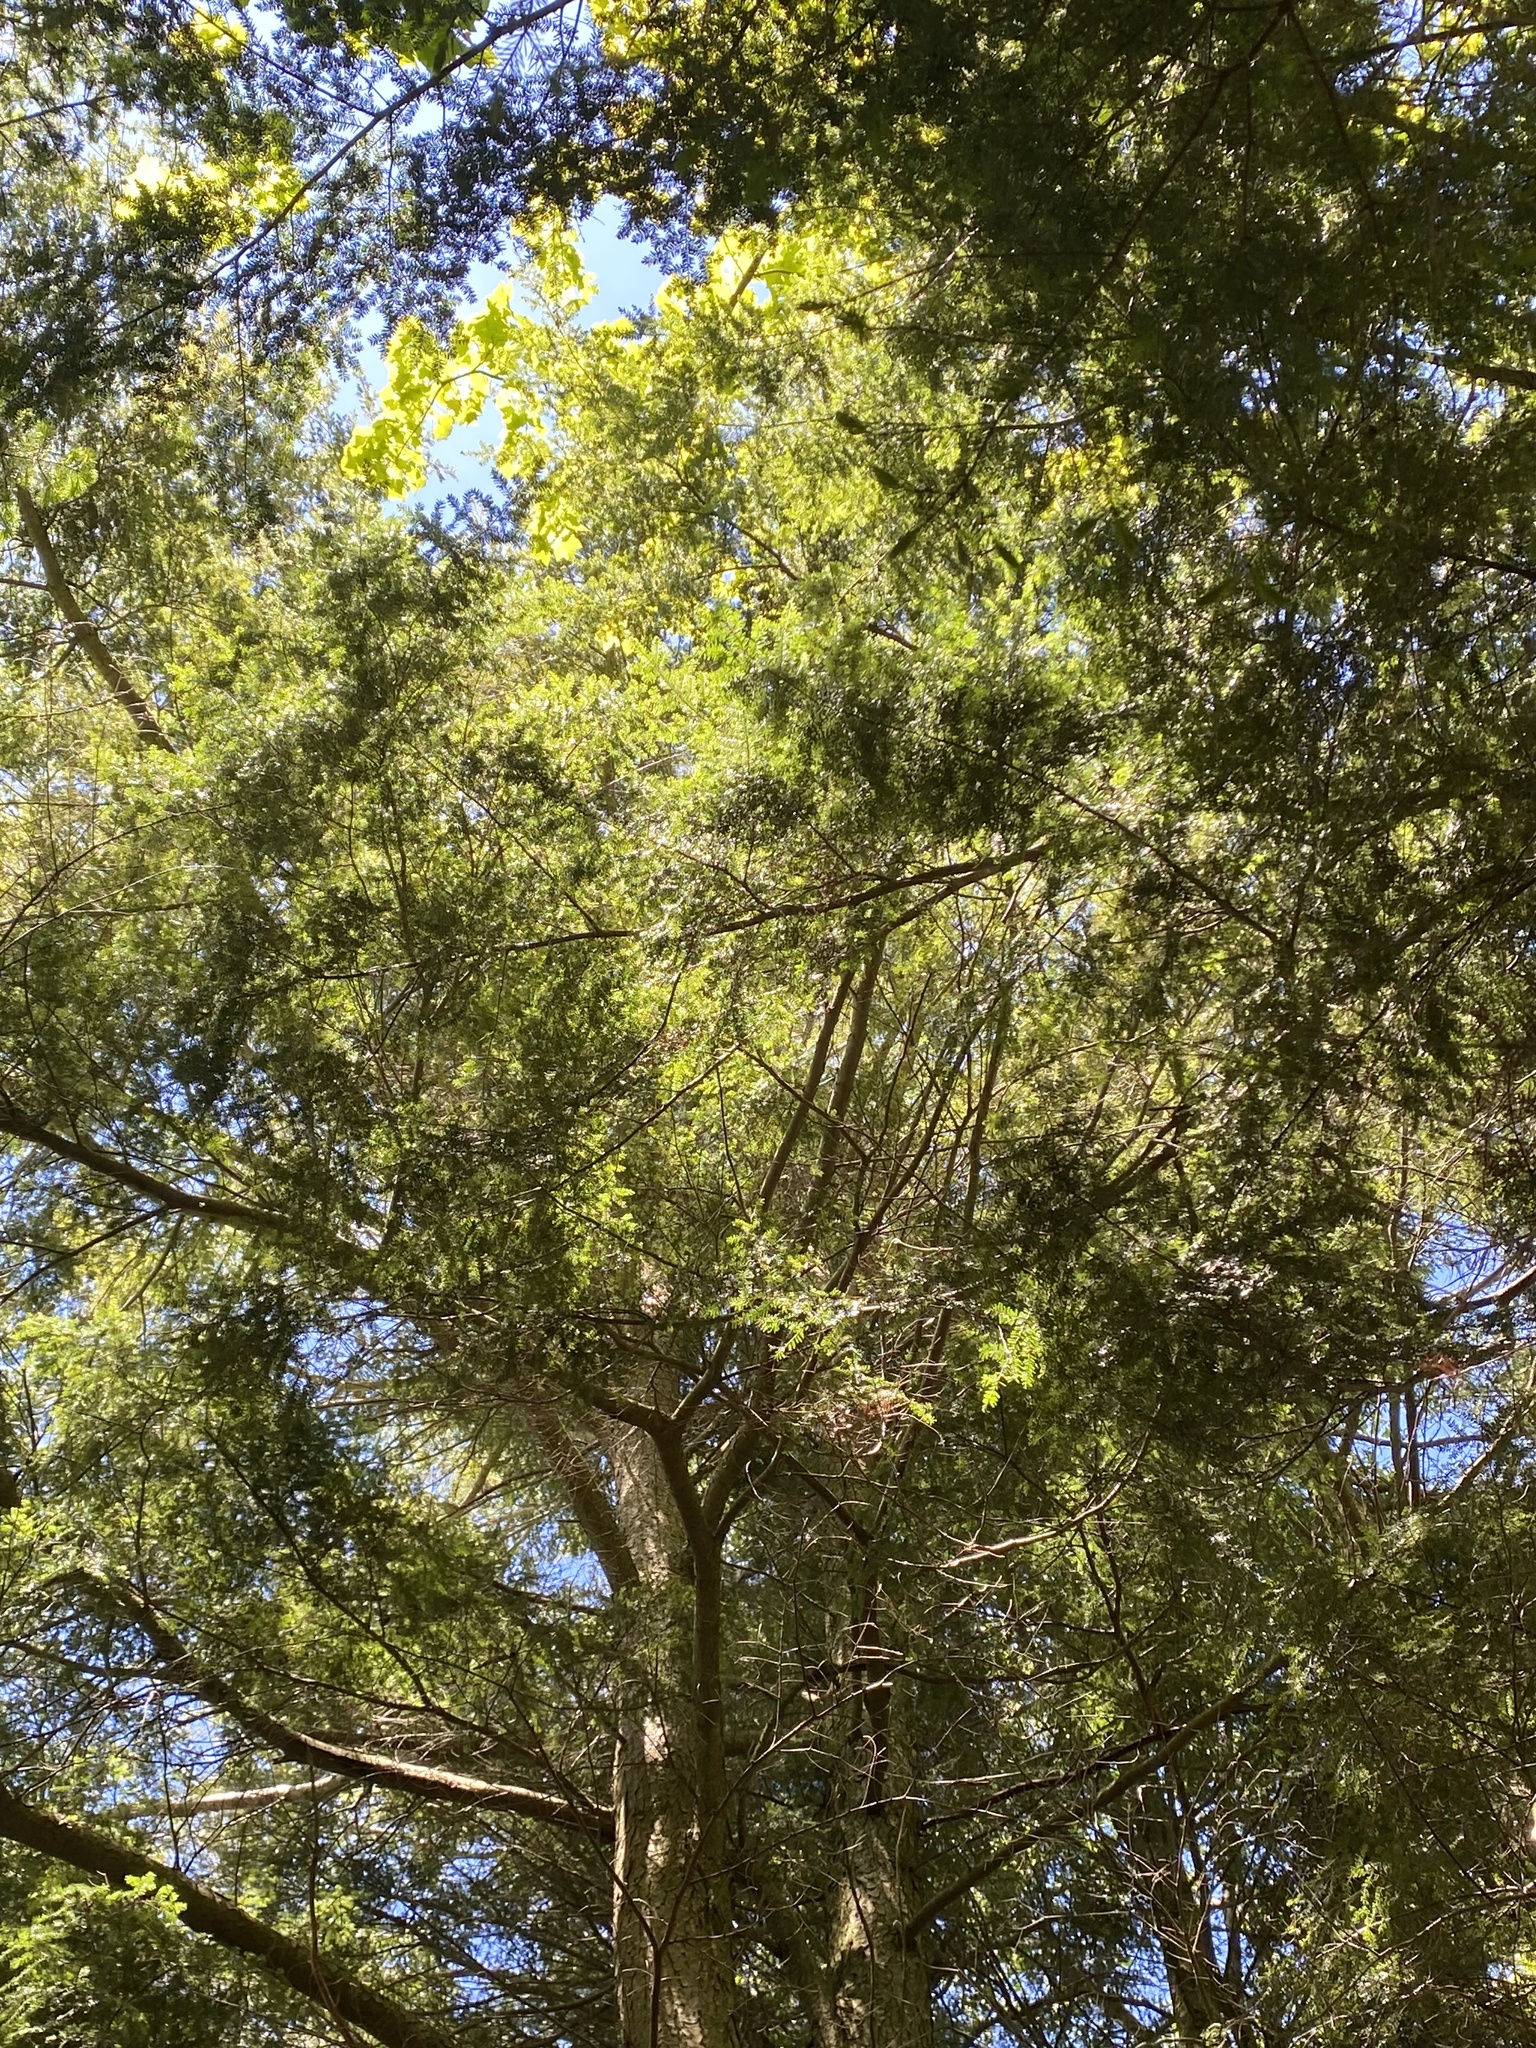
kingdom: Plantae
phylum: Tracheophyta
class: Pinopsida
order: Pinales
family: Pinaceae
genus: Tsuga
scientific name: Tsuga canadensis
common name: Eastern hemlock
